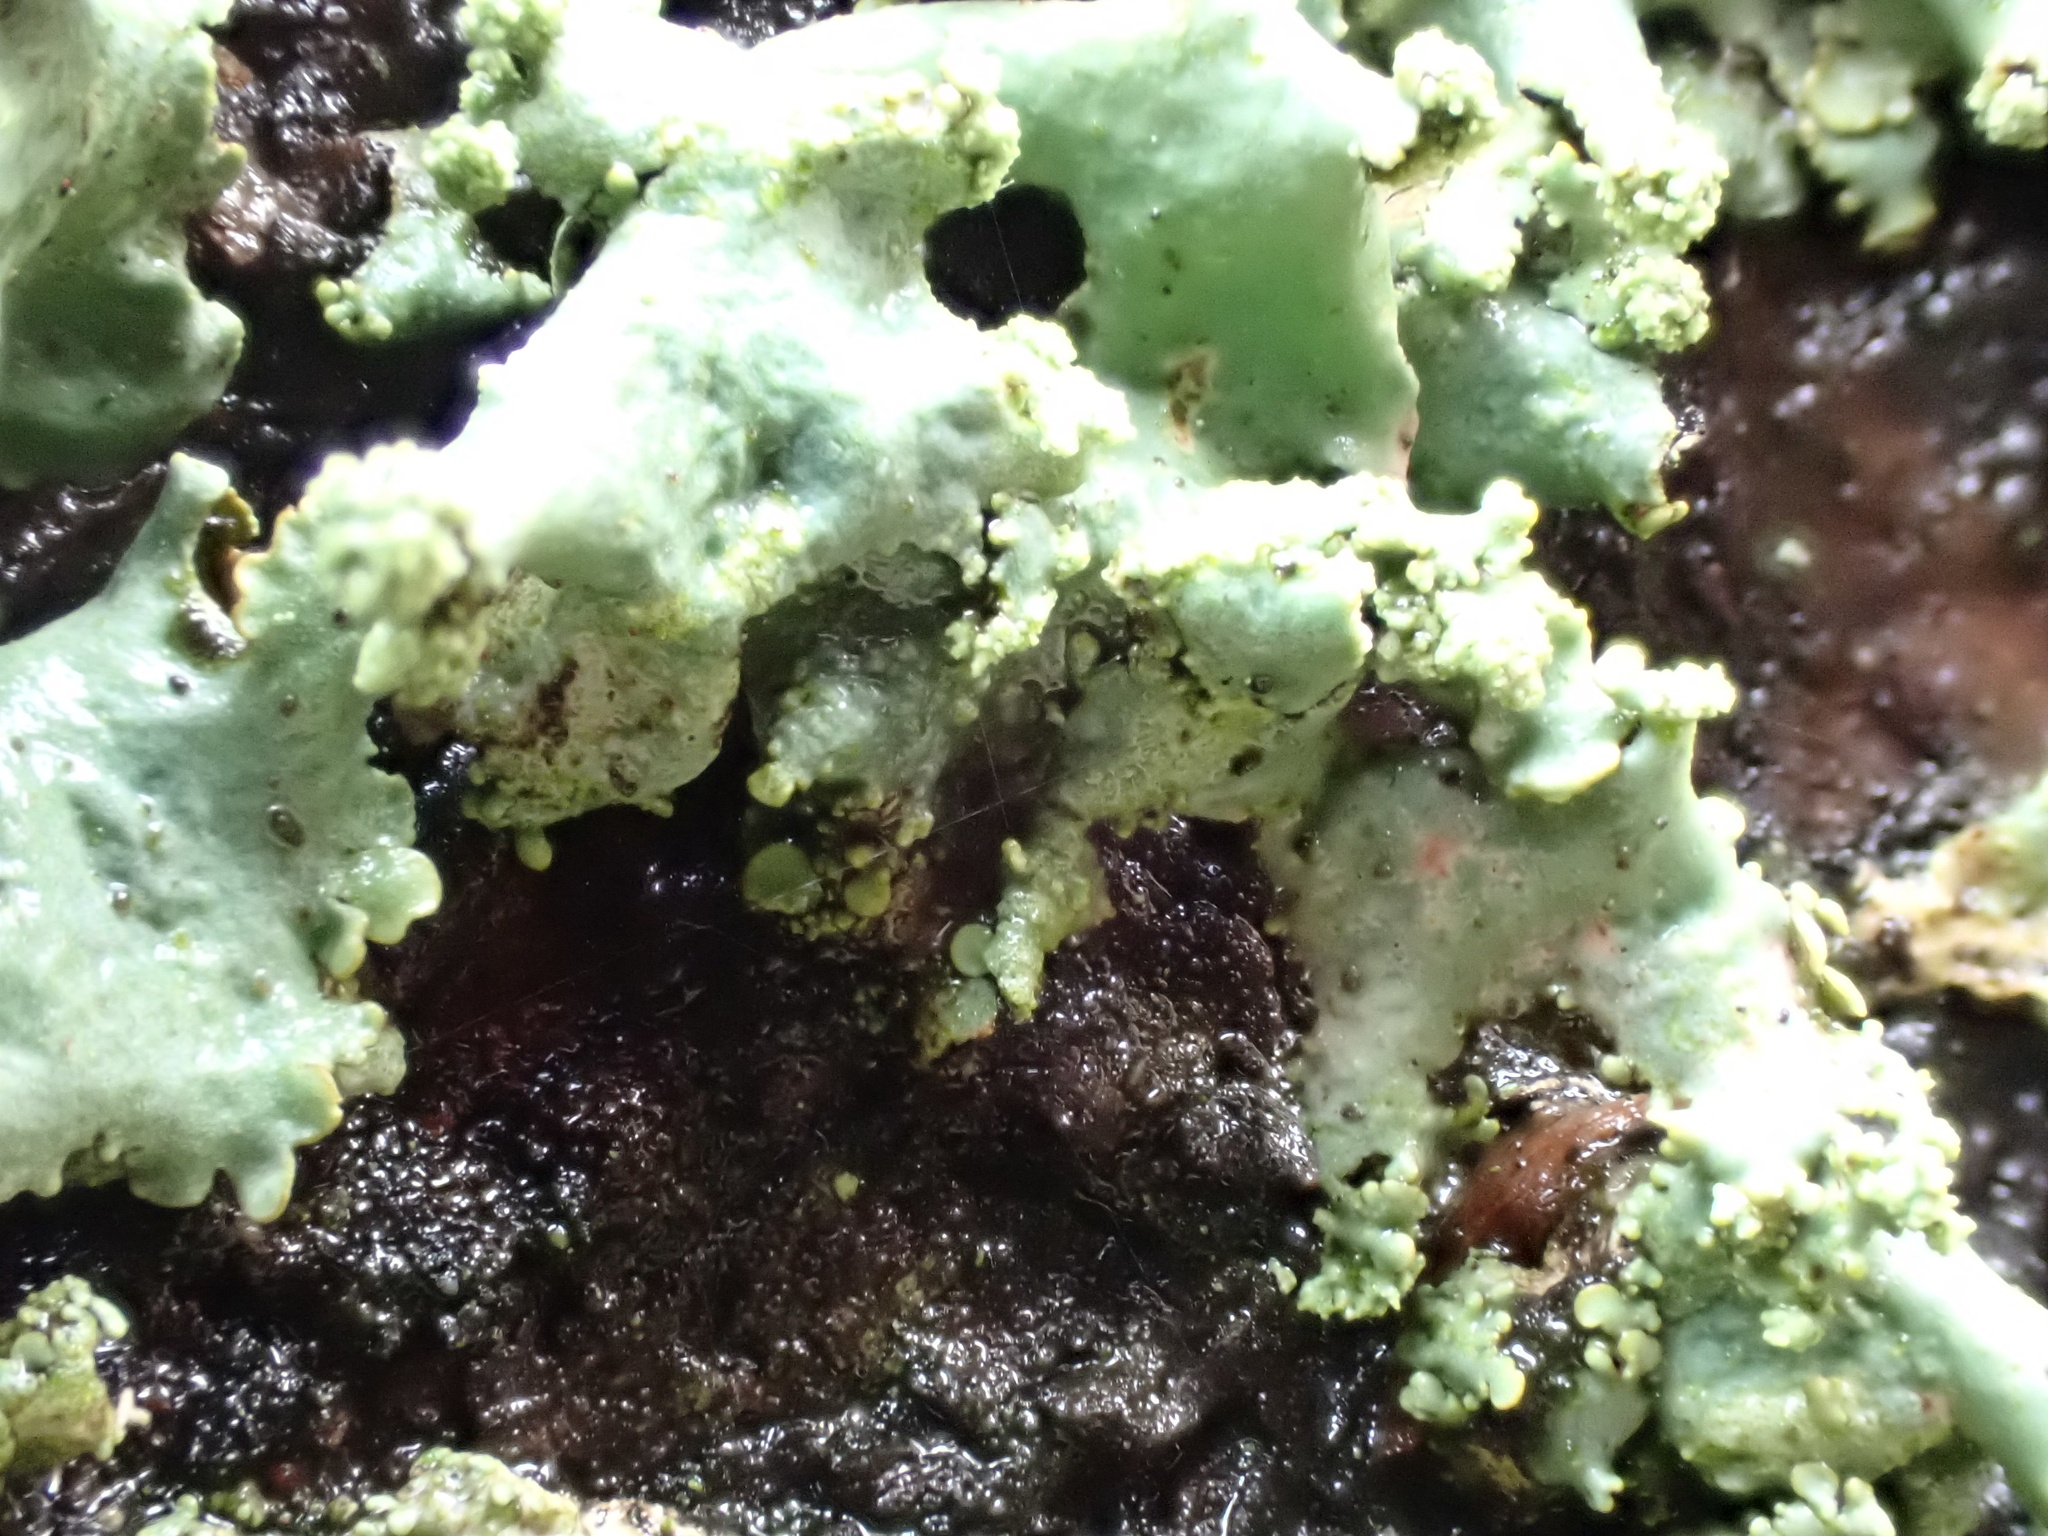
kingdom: Fungi
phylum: Ascomycota
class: Lecanoromycetes
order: Lecanorales
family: Parmeliaceae
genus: Parmotrema
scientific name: Parmotrema perlatum
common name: Black stone flower
